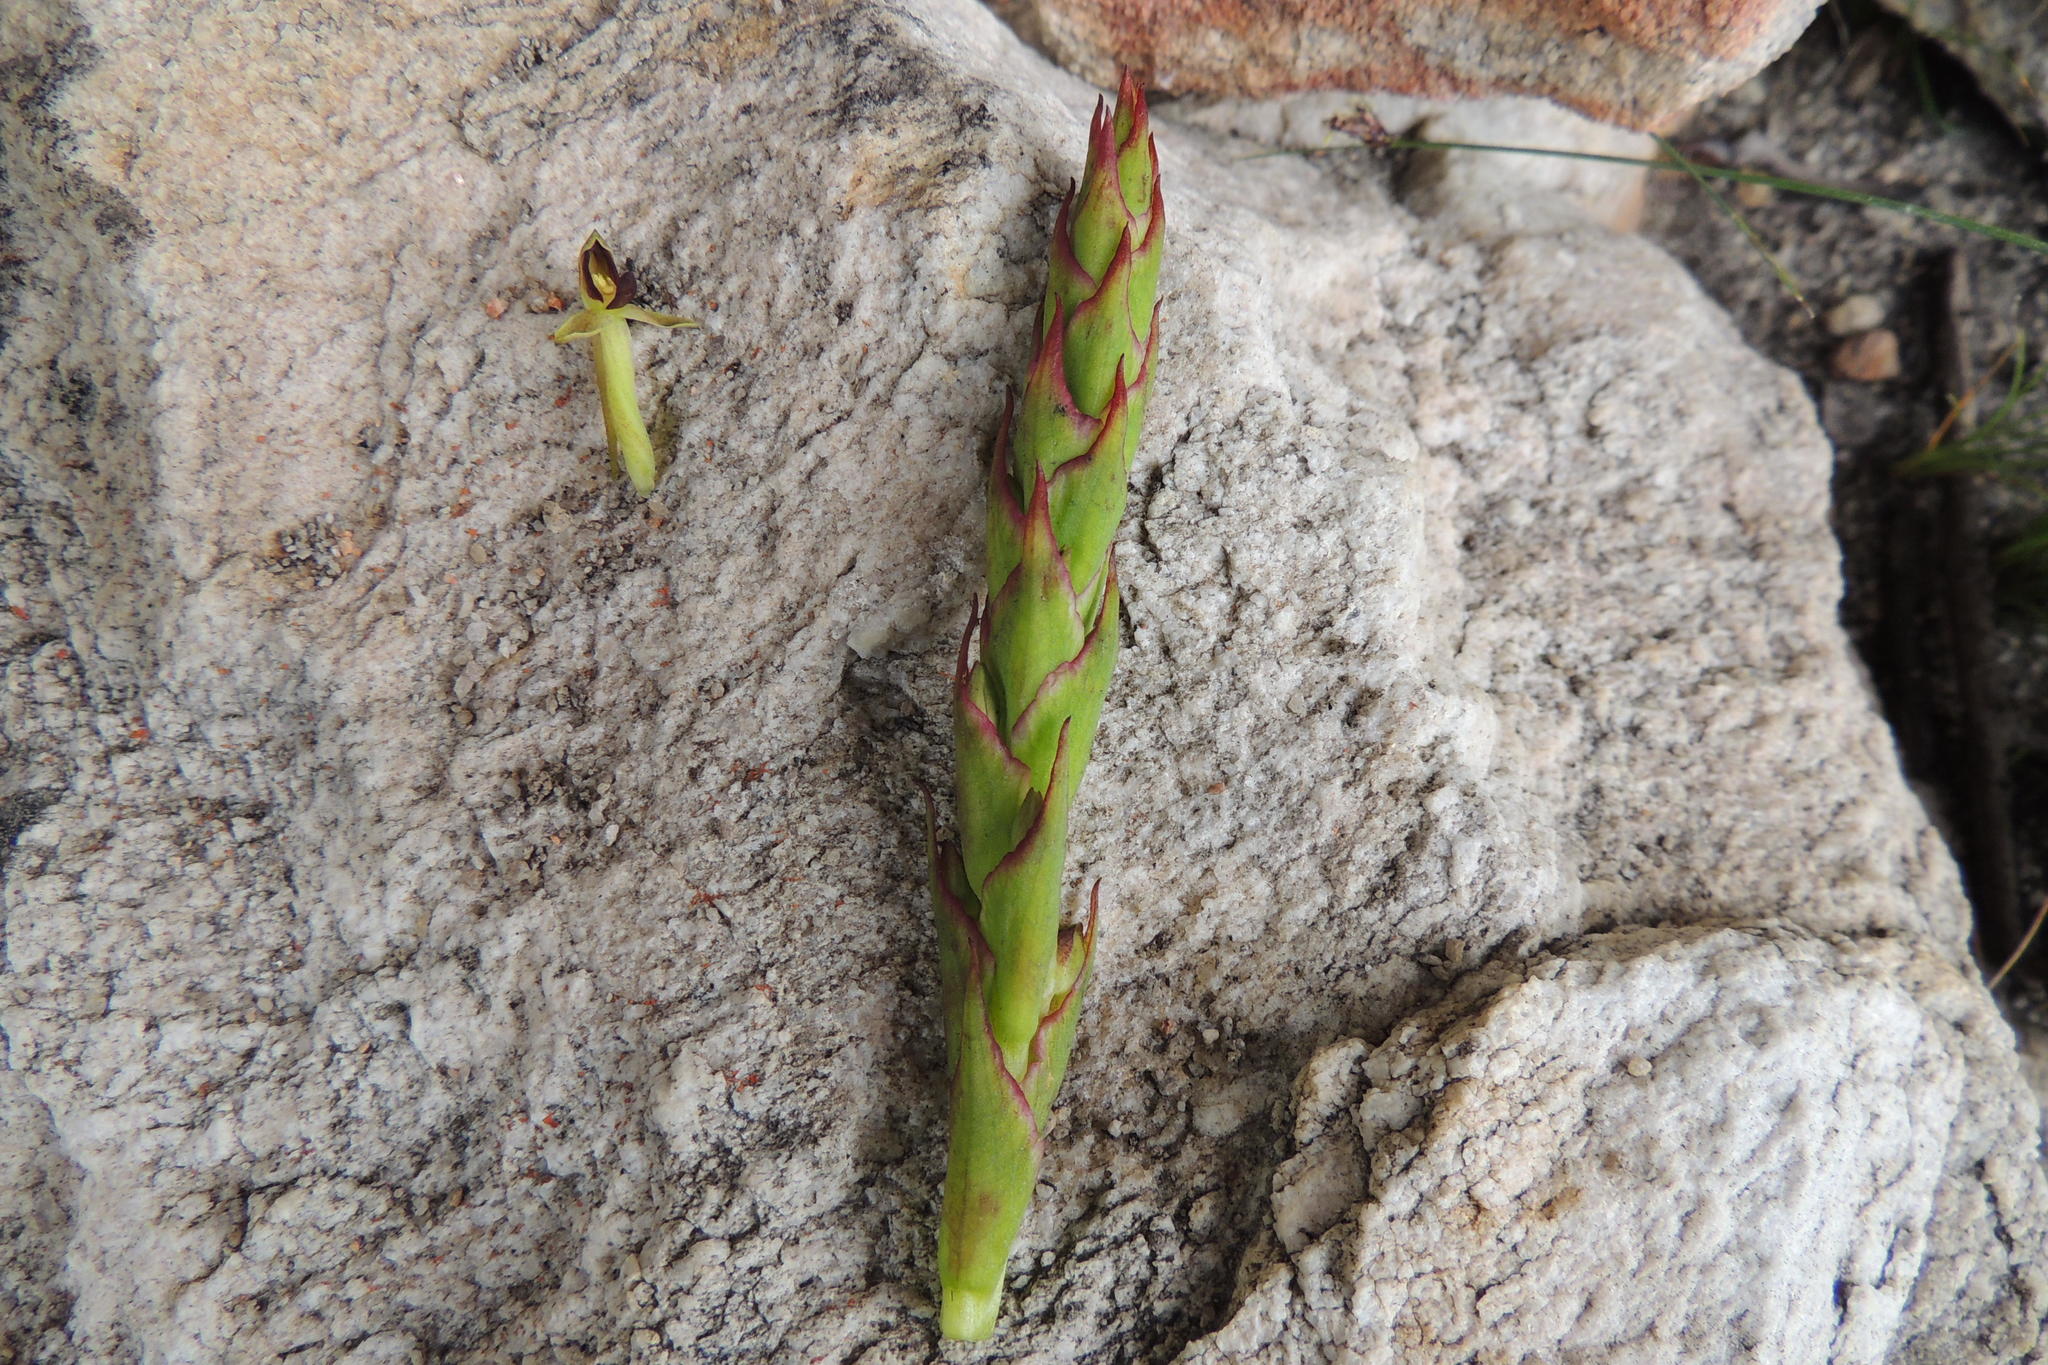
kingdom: Plantae
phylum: Tracheophyta
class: Liliopsida
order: Asparagales
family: Orchidaceae
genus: Disa
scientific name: Disa rufescens
